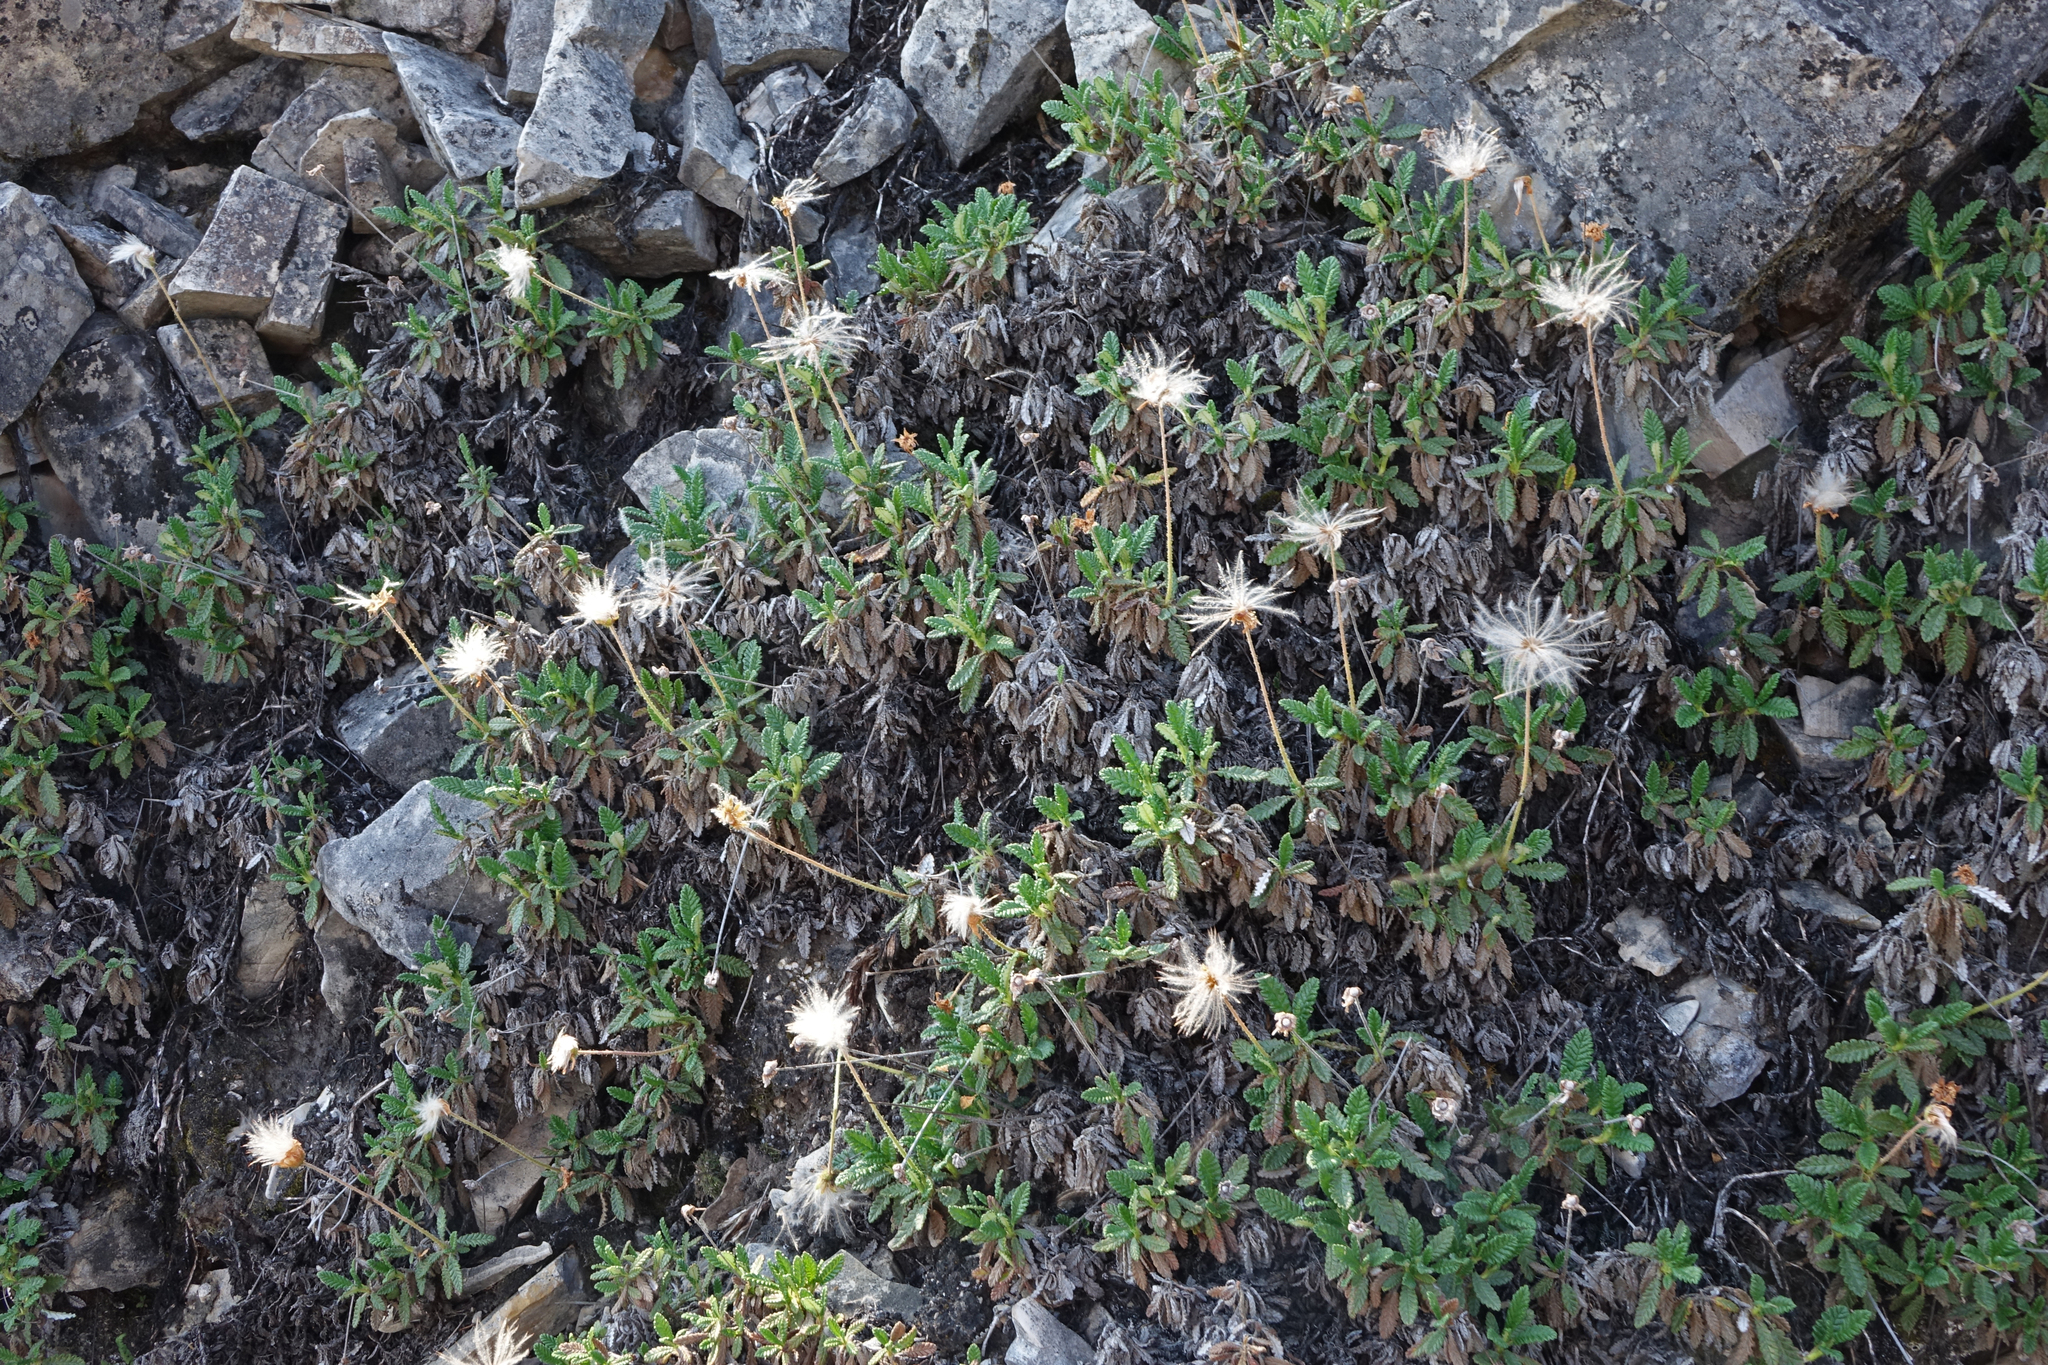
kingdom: Plantae
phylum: Tracheophyta
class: Magnoliopsida
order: Rosales
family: Rosaceae
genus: Dryas
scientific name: Dryas octopetala
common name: Eight-petal mountain-avens
